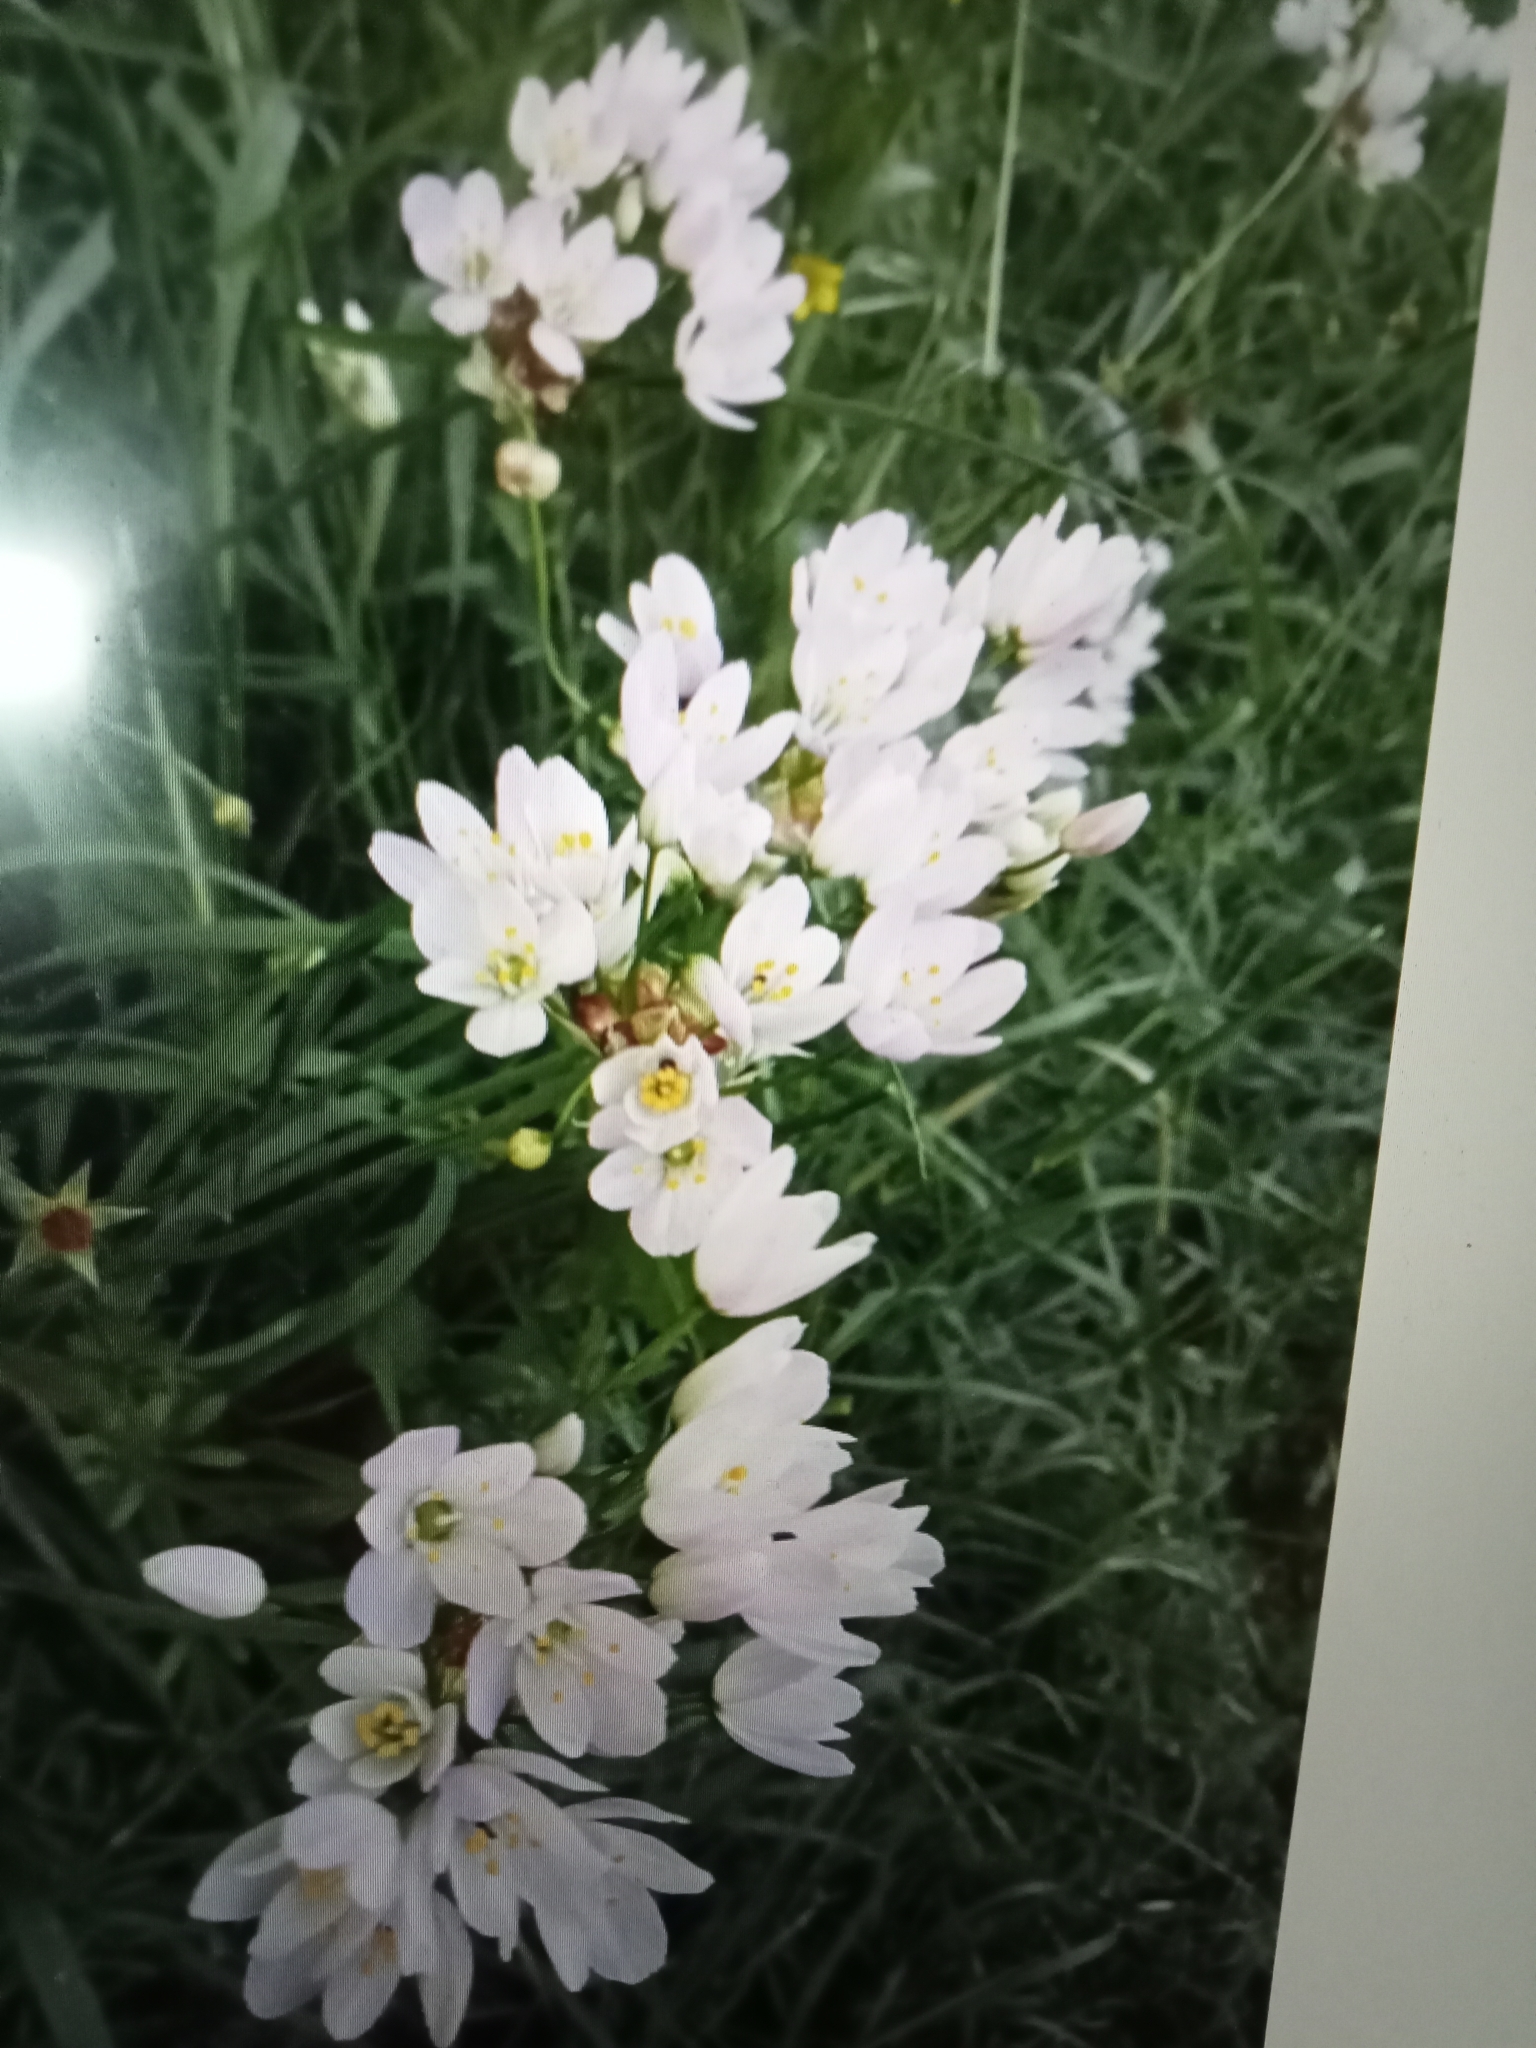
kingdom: Plantae
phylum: Tracheophyta
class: Liliopsida
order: Asparagales
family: Amaryllidaceae
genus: Allium
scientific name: Allium roseum
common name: Rosy garlic
